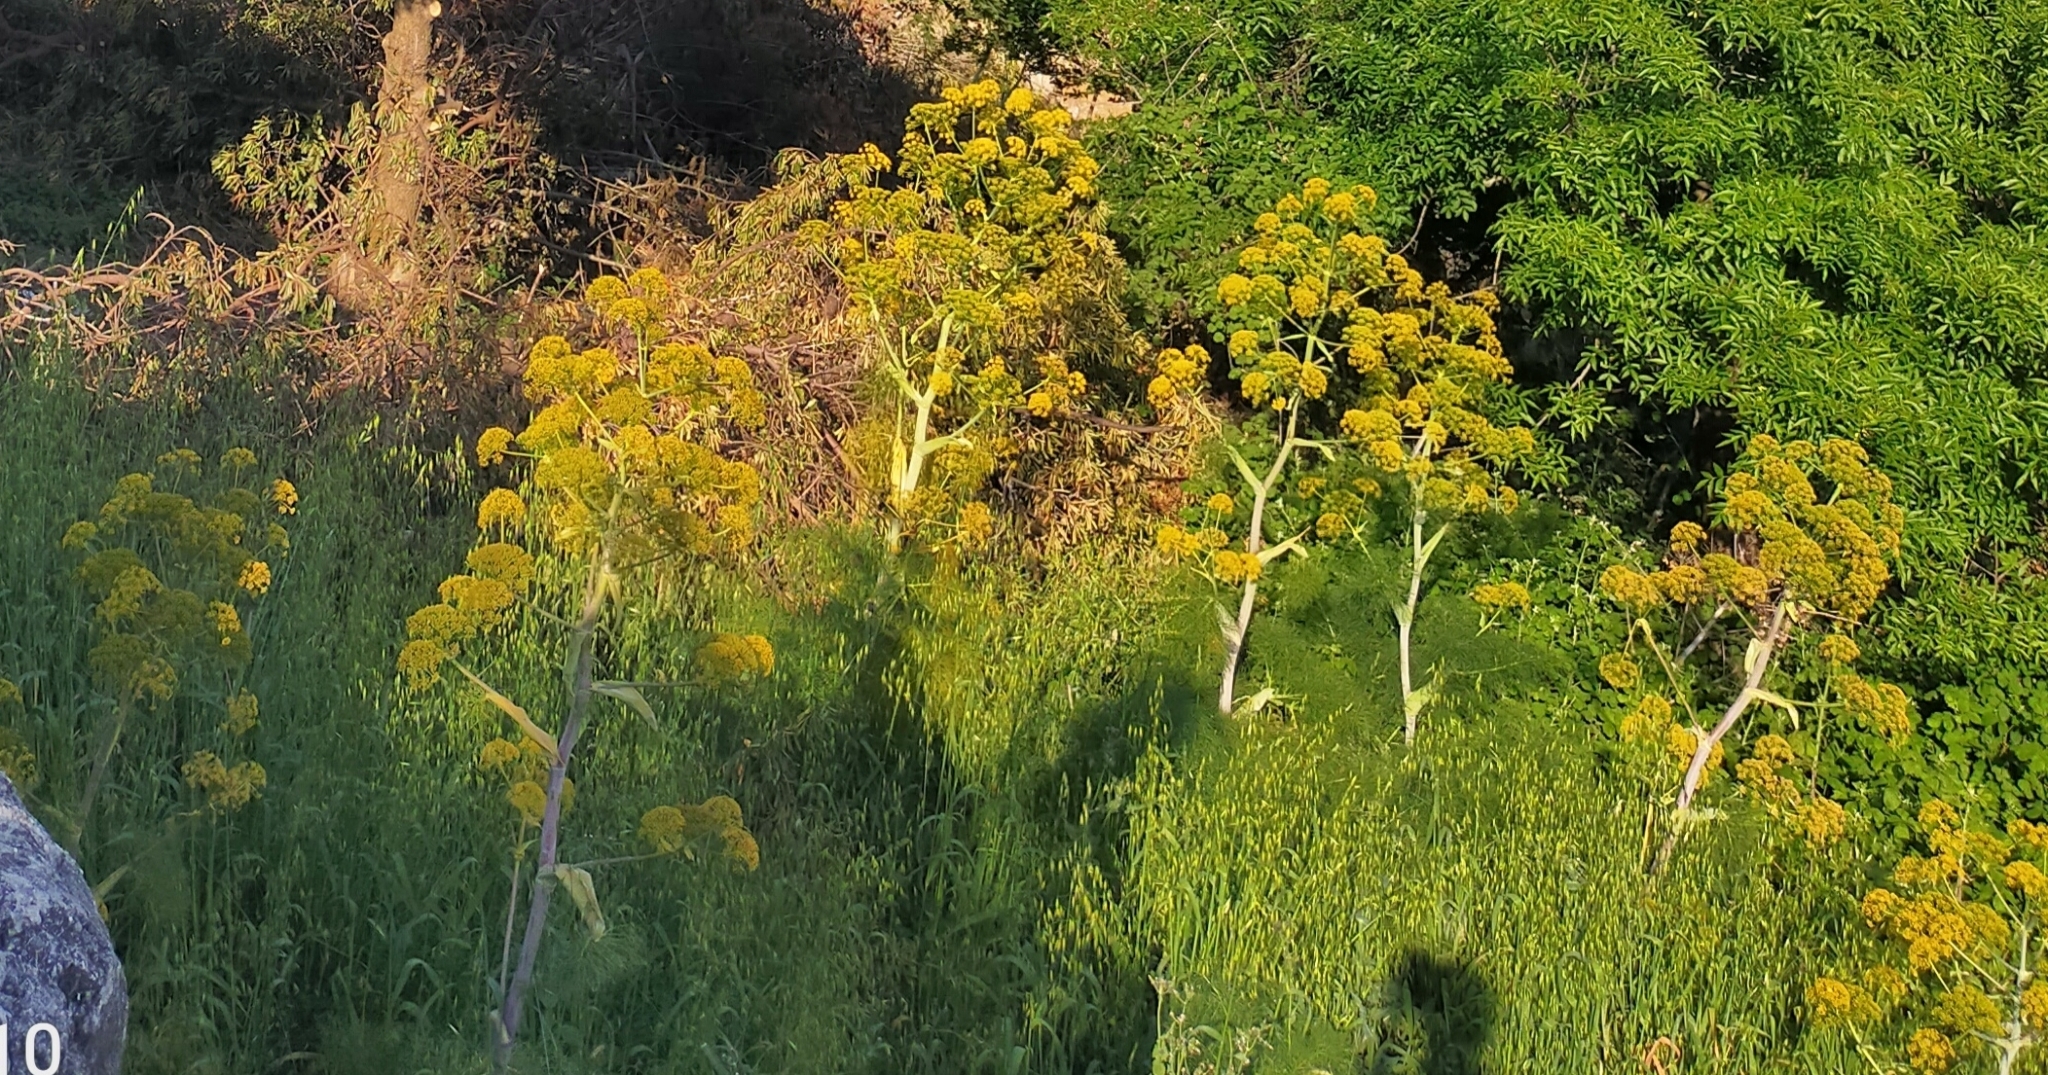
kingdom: Plantae
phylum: Tracheophyta
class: Magnoliopsida
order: Apiales
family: Apiaceae
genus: Ferula
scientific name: Ferula communis
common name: Giant fennel
